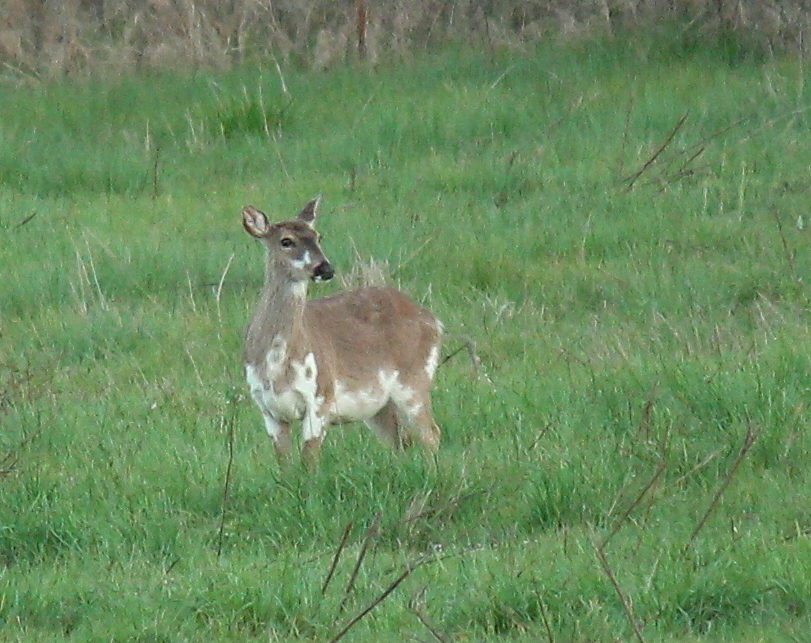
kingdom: Animalia
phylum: Chordata
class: Mammalia
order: Artiodactyla
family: Cervidae
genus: Odocoileus
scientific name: Odocoileus virginianus
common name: White-tailed deer
